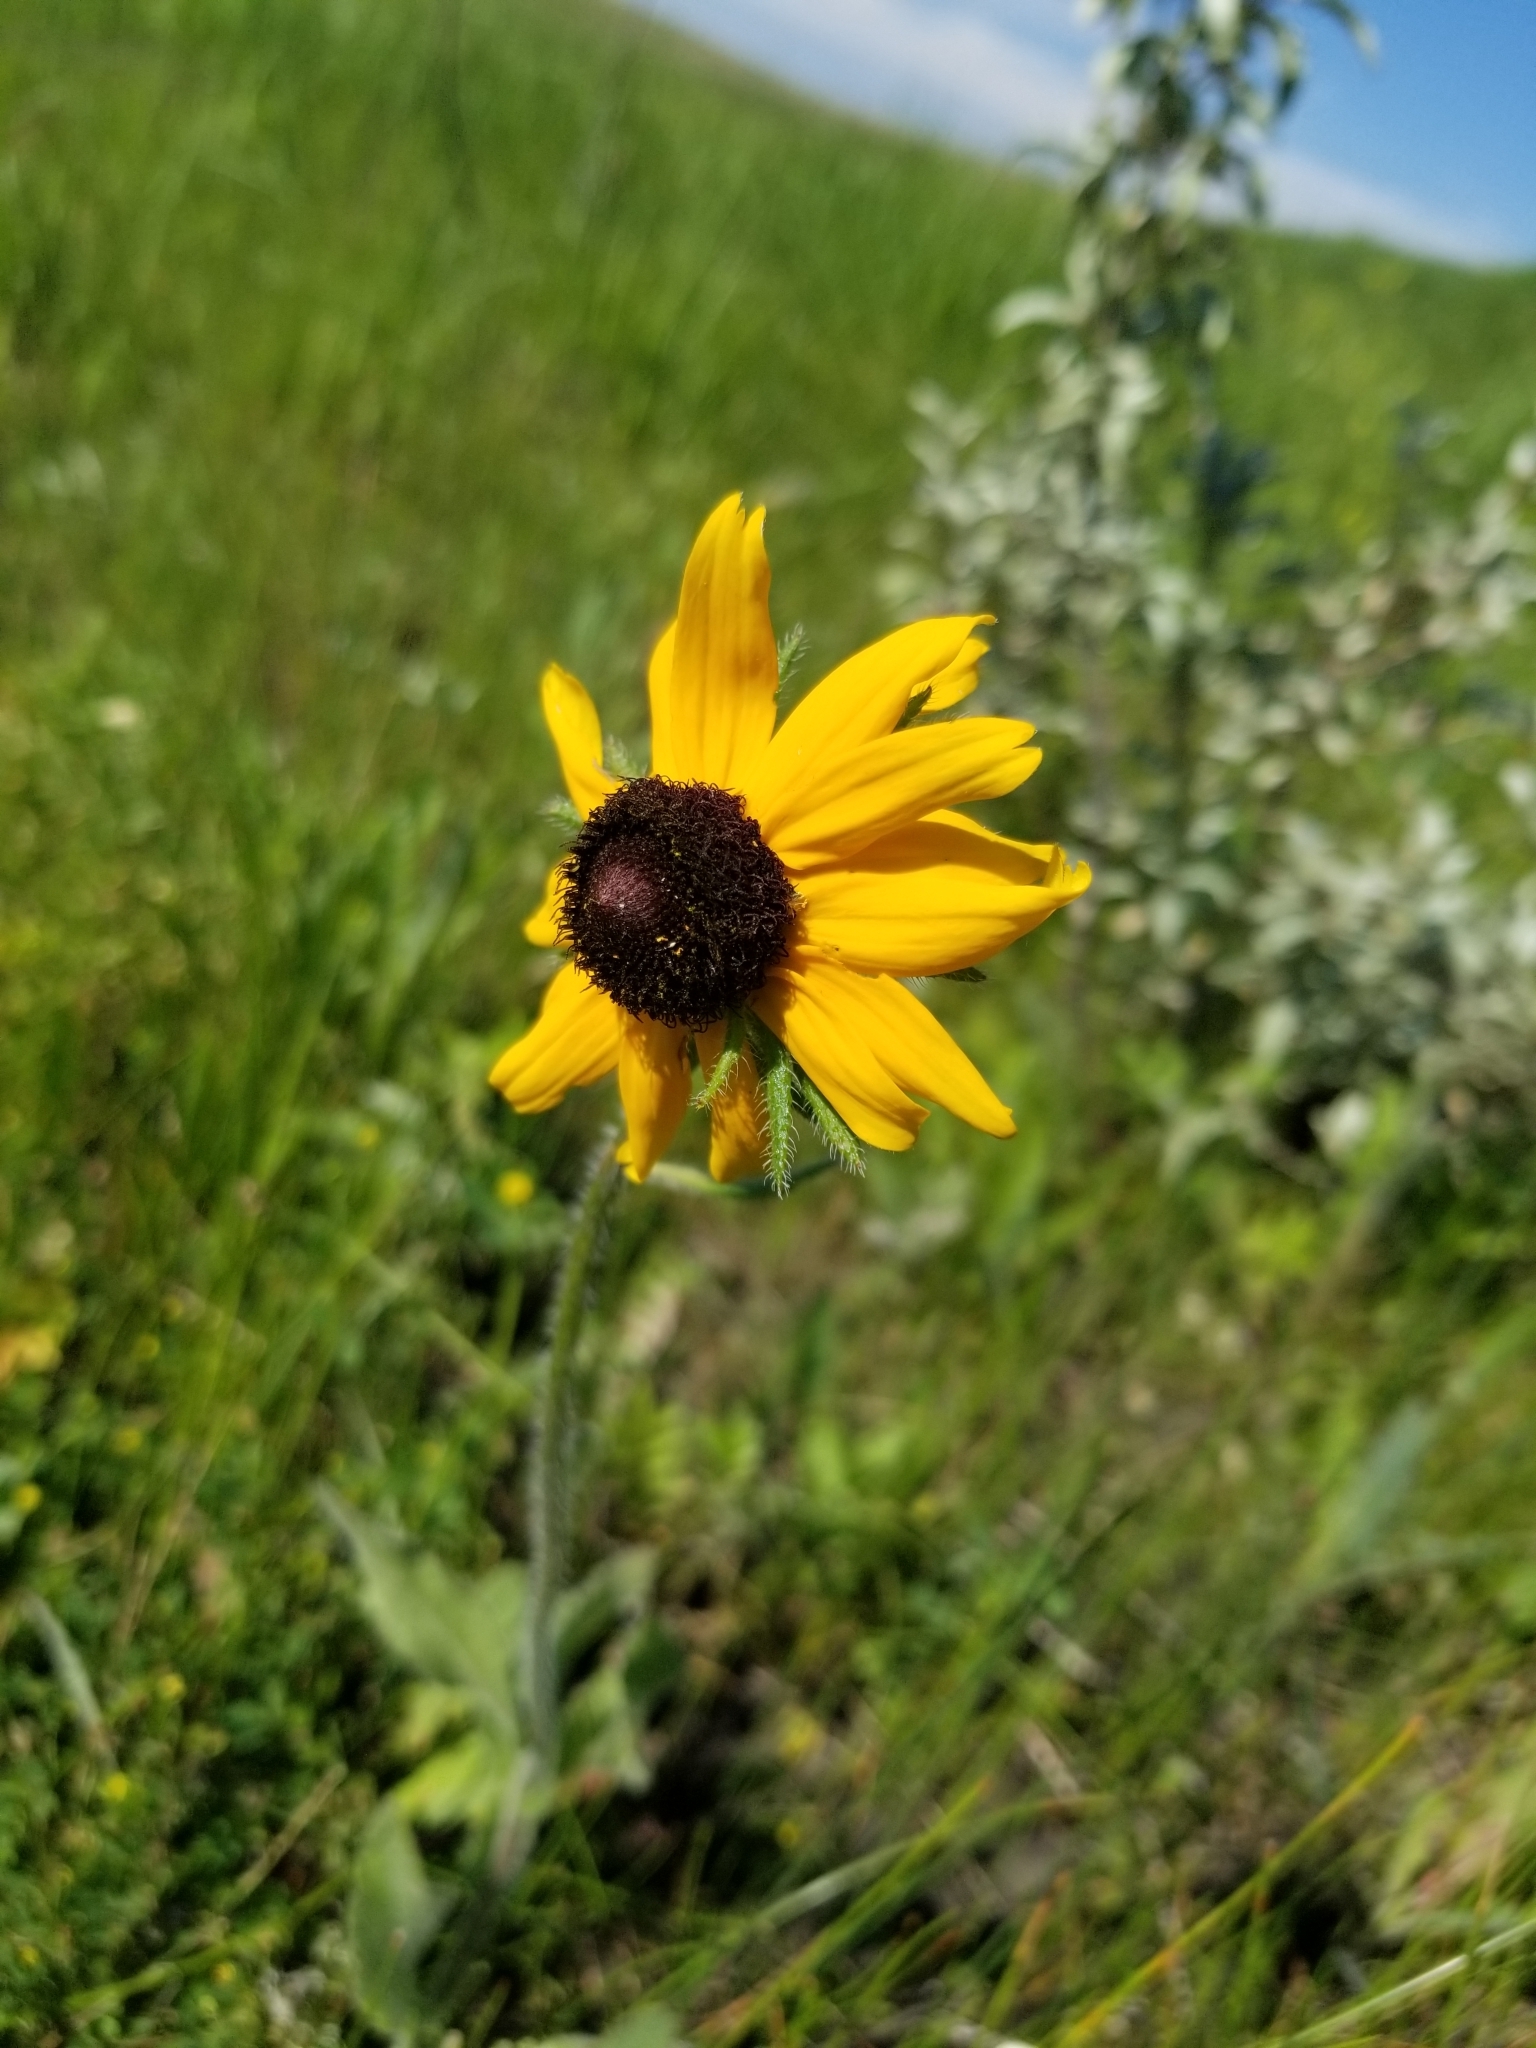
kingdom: Plantae
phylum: Tracheophyta
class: Magnoliopsida
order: Asterales
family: Asteraceae
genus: Rudbeckia
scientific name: Rudbeckia hirta
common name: Black-eyed-susan
